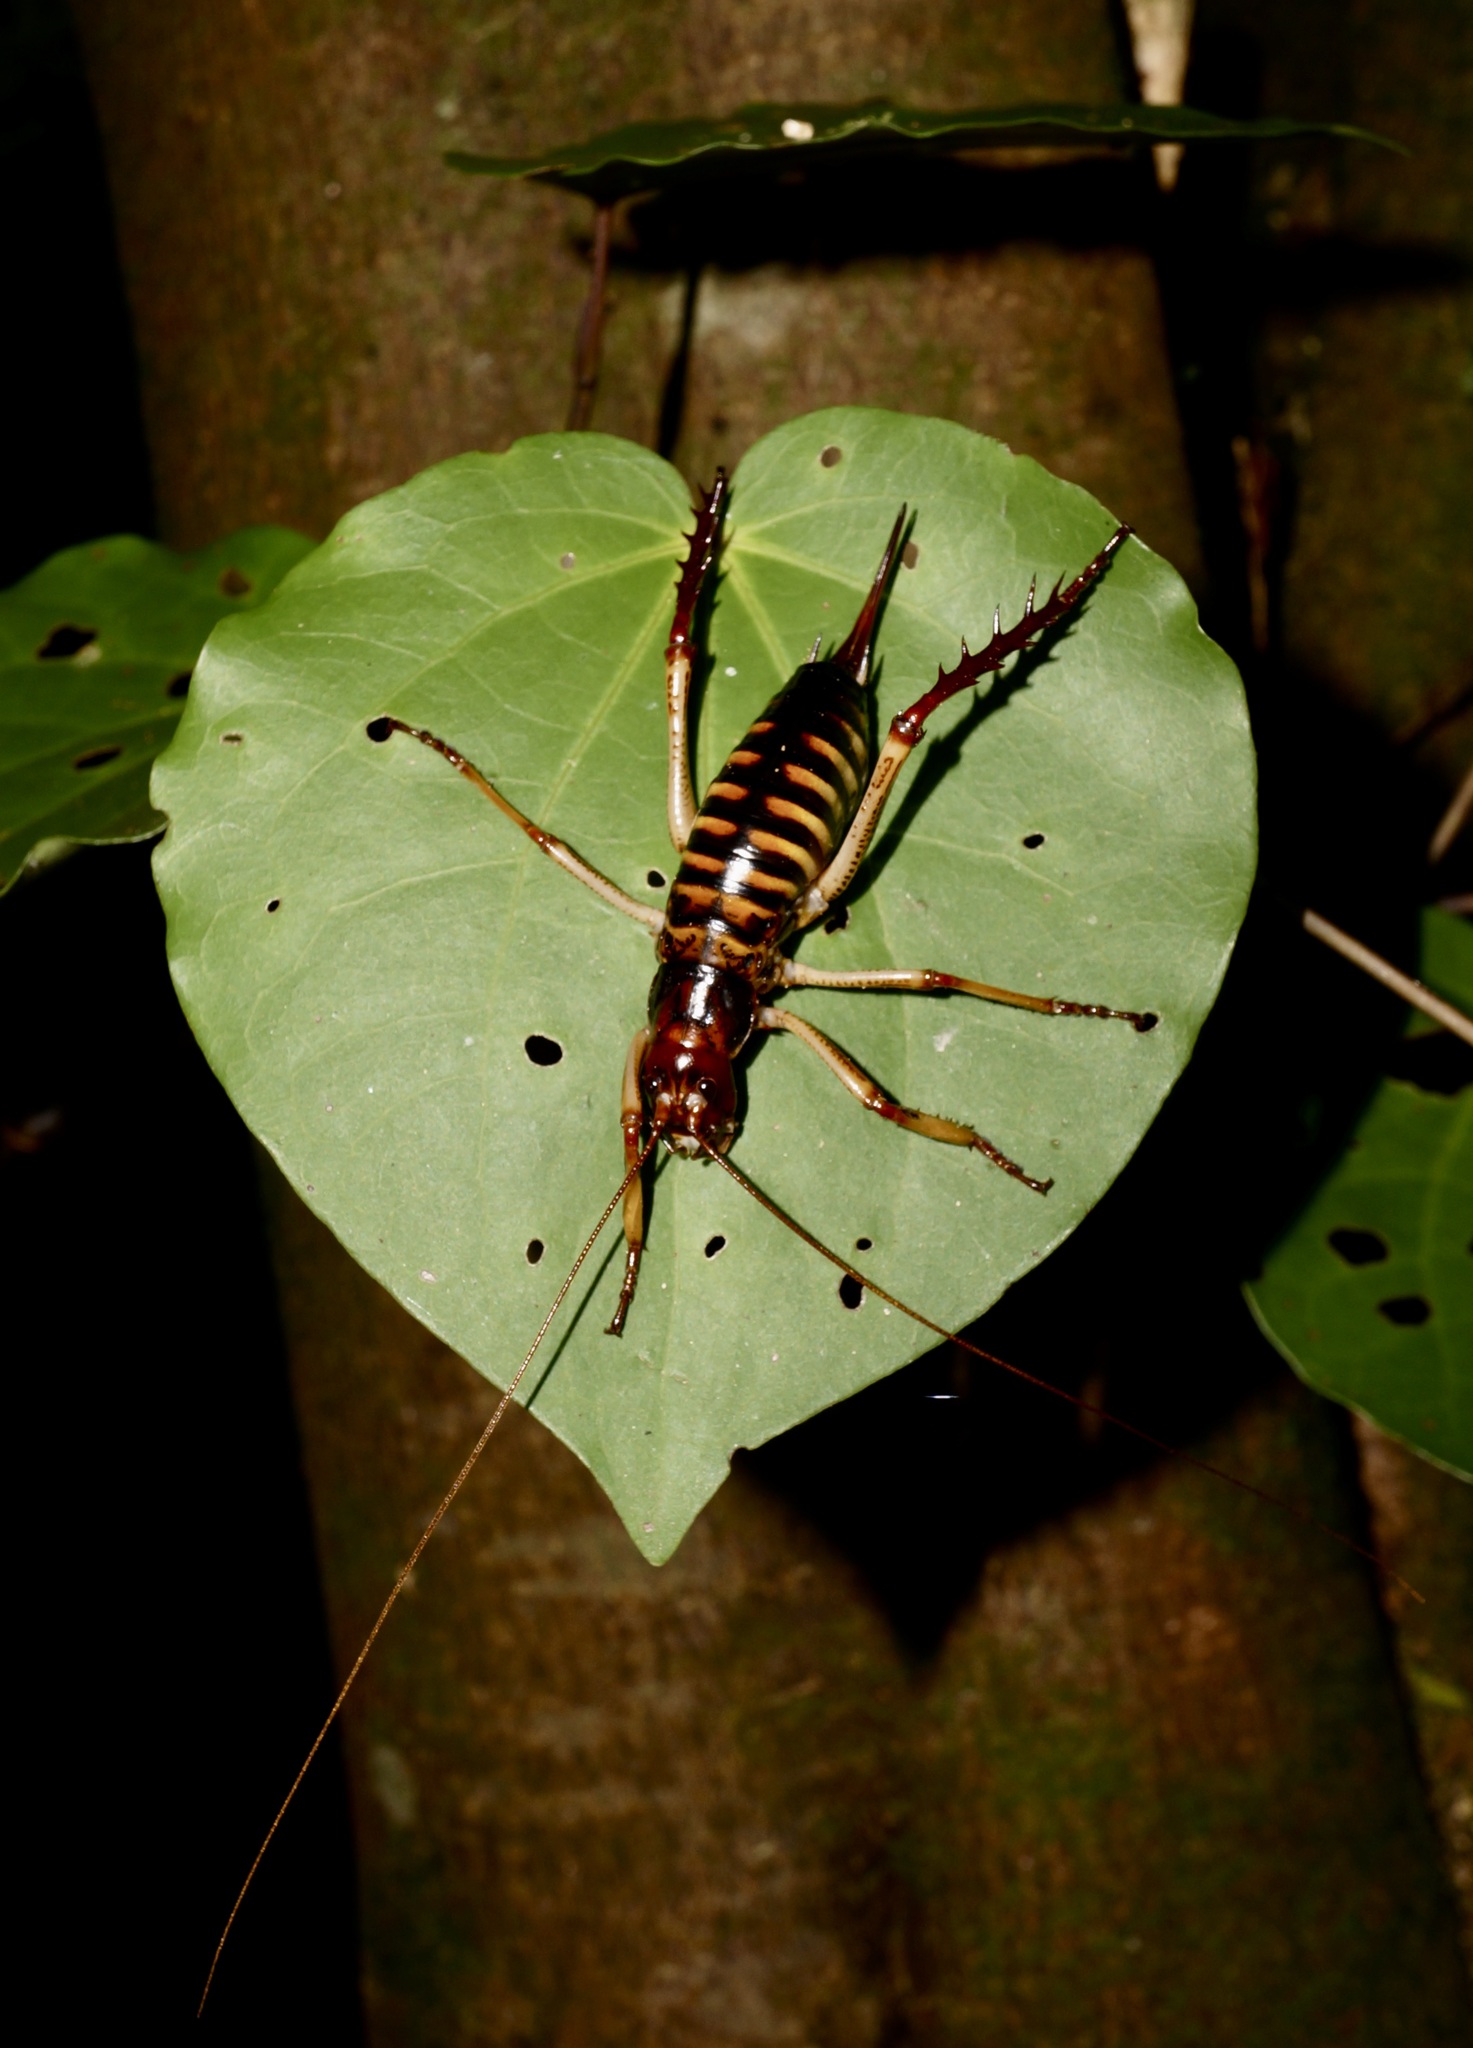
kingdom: Animalia
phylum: Arthropoda
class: Insecta
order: Orthoptera
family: Anostostomatidae
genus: Hemideina
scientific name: Hemideina crassidens
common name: Wellington tree weta
